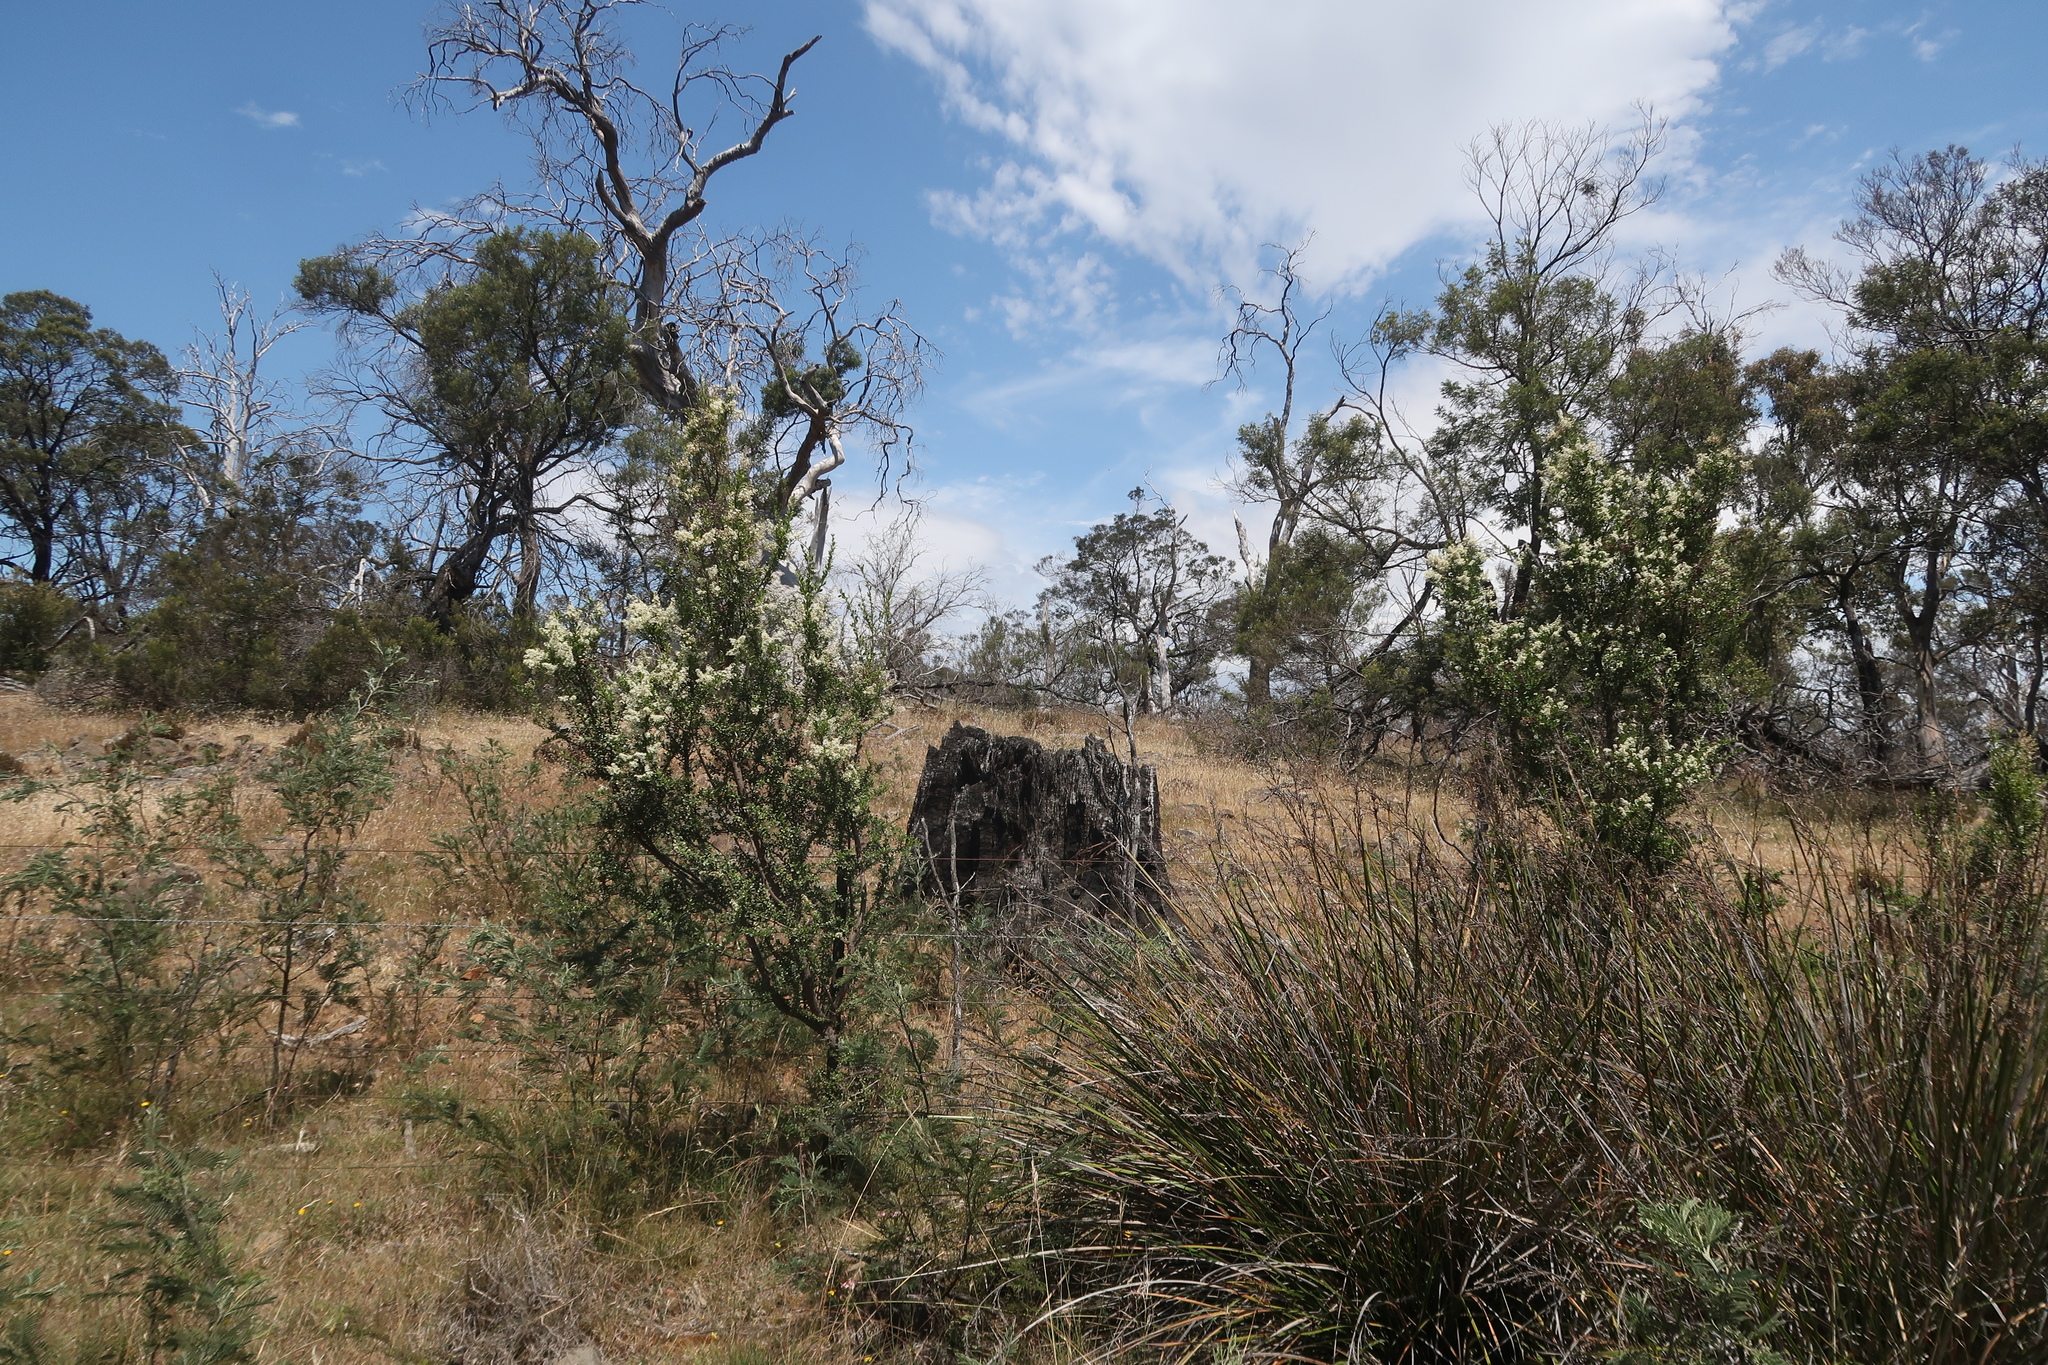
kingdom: Plantae
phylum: Tracheophyta
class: Magnoliopsida
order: Apiales
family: Pittosporaceae
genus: Bursaria
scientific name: Bursaria spinosa
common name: Australian blackthorn
